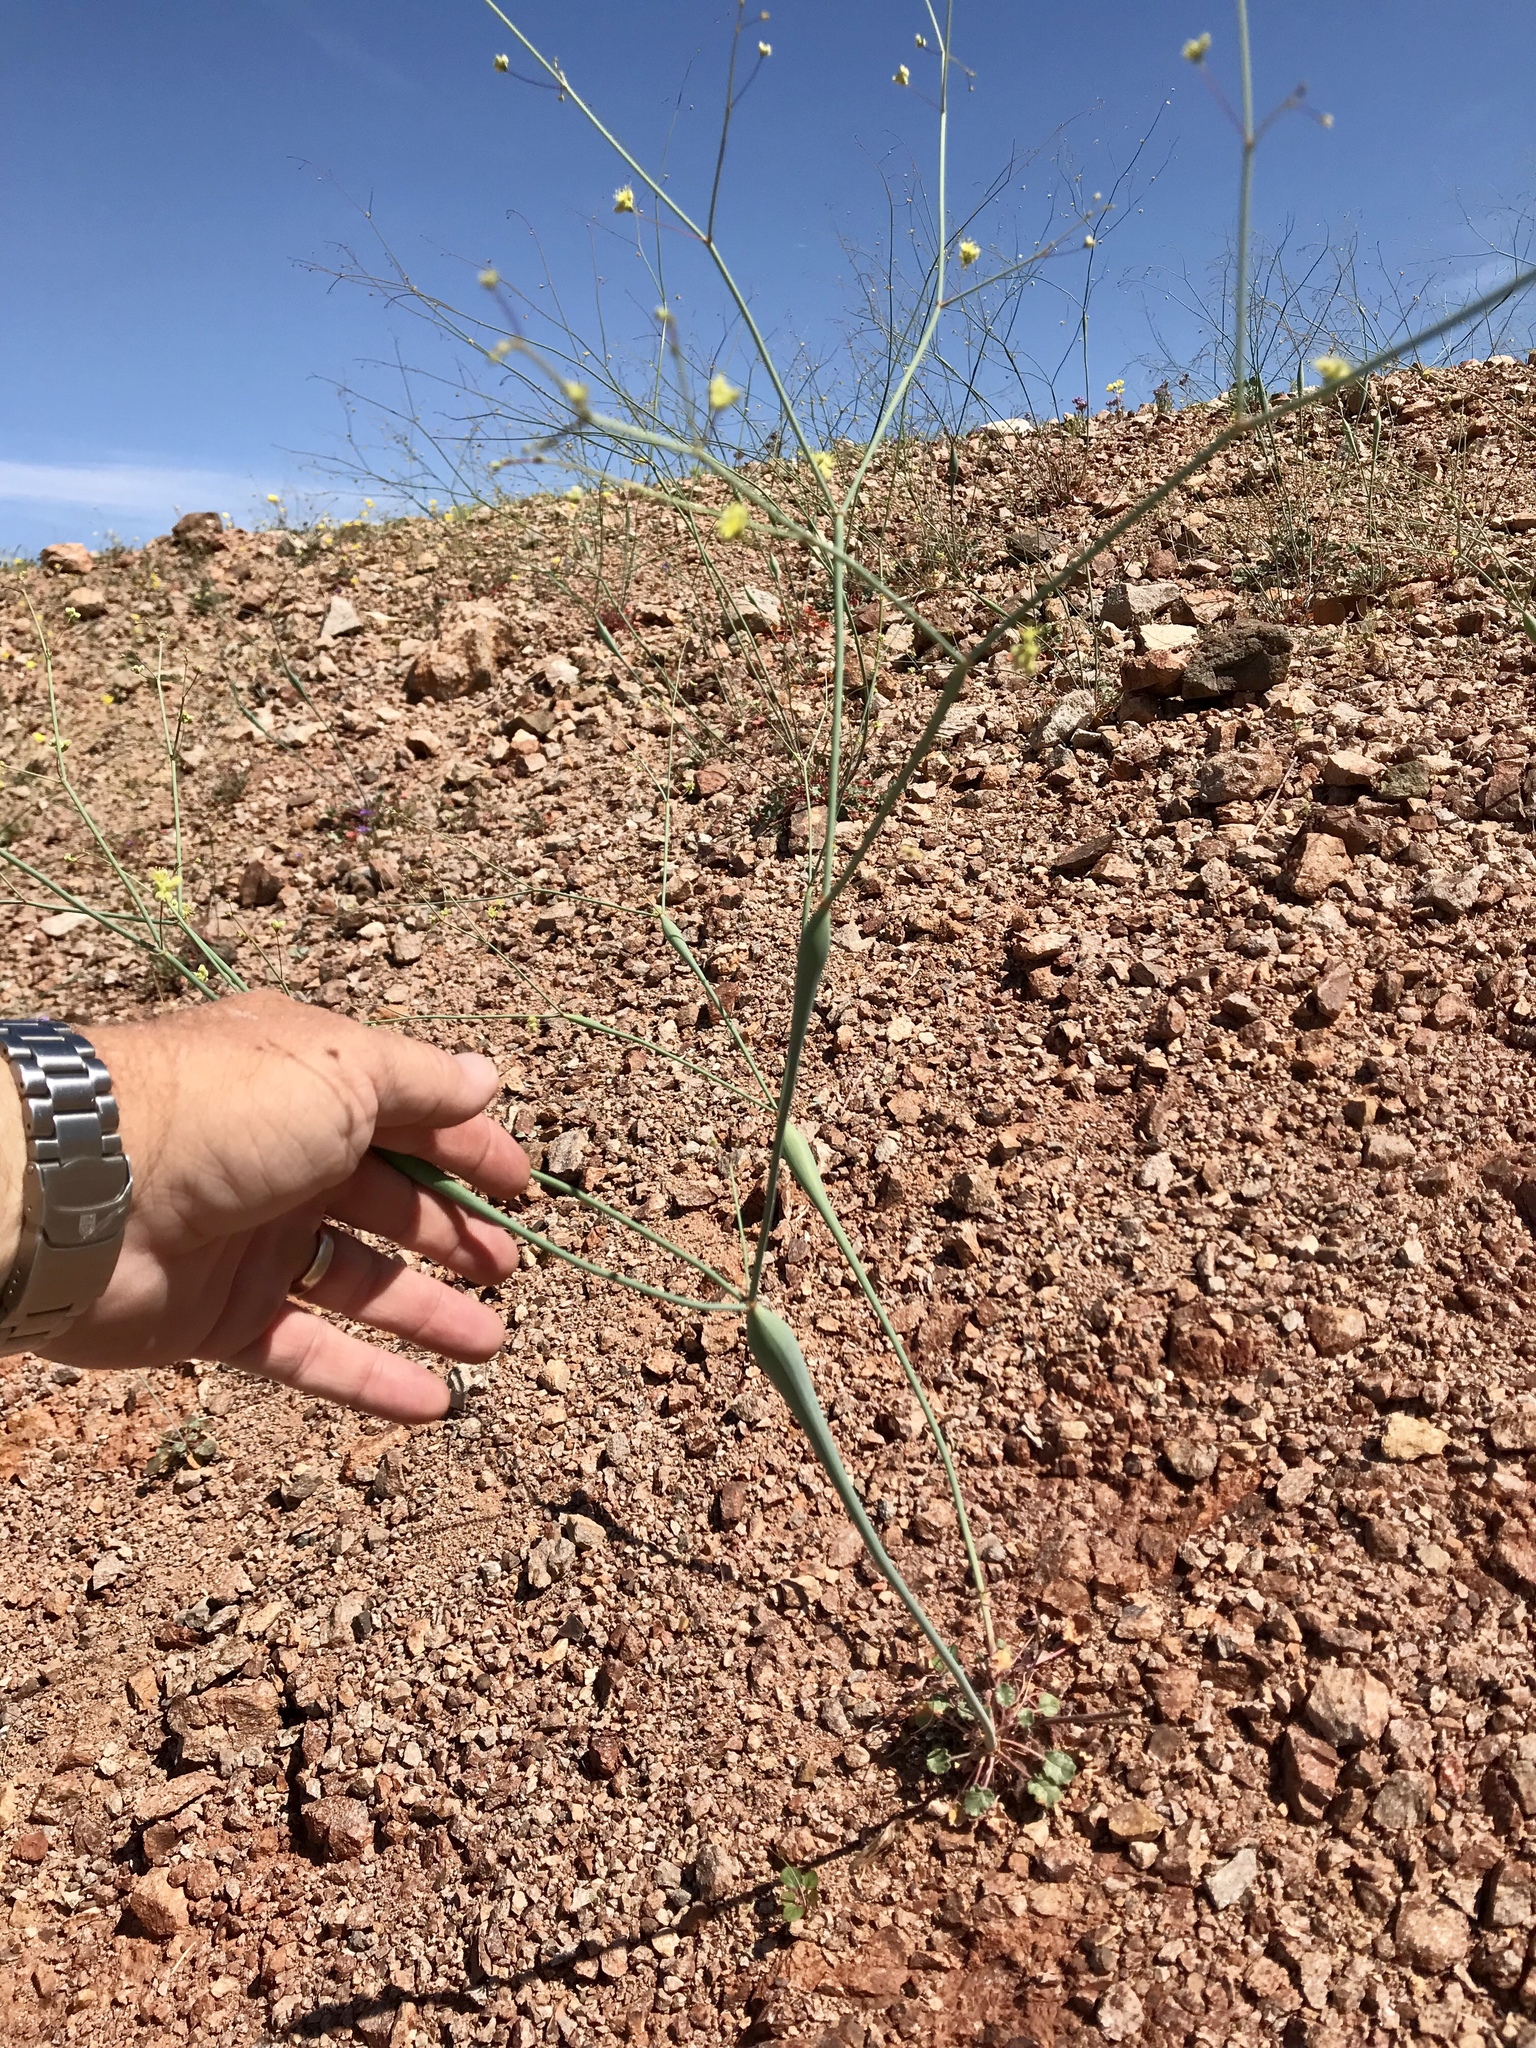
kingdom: Plantae
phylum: Tracheophyta
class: Magnoliopsida
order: Caryophyllales
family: Polygonaceae
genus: Eriogonum
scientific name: Eriogonum inflatum
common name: Desert trumpet
